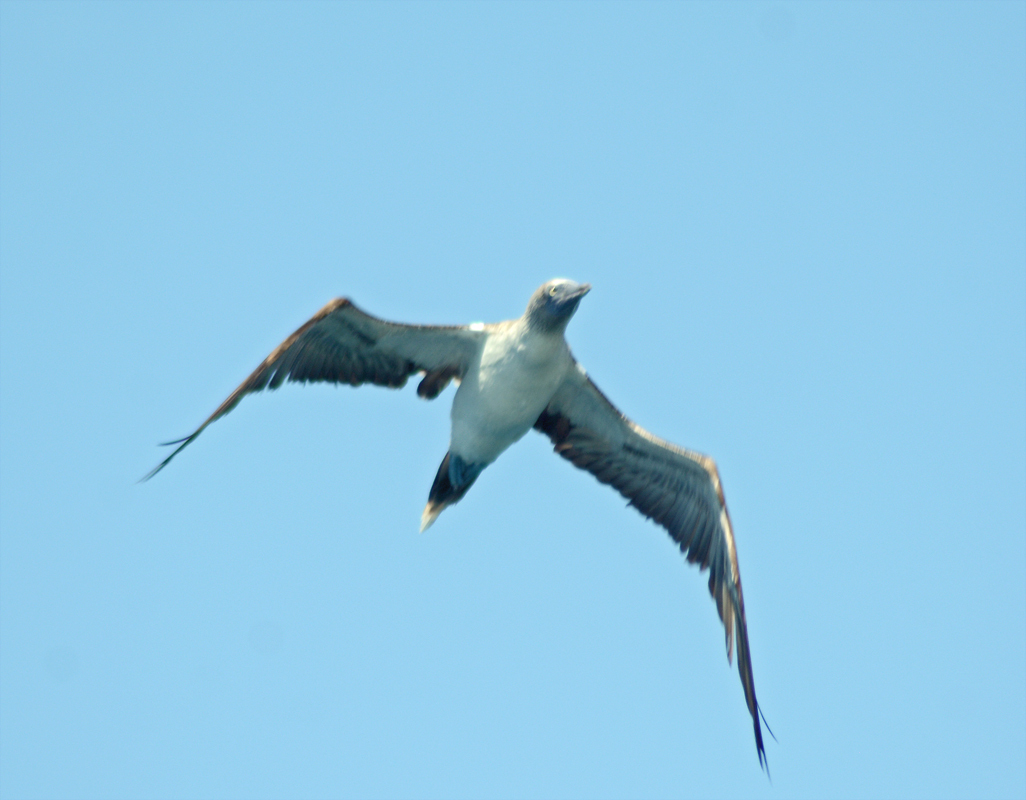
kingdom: Animalia
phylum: Chordata
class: Aves
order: Suliformes
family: Sulidae
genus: Sula
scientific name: Sula nebouxii
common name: Blue-footed booby
